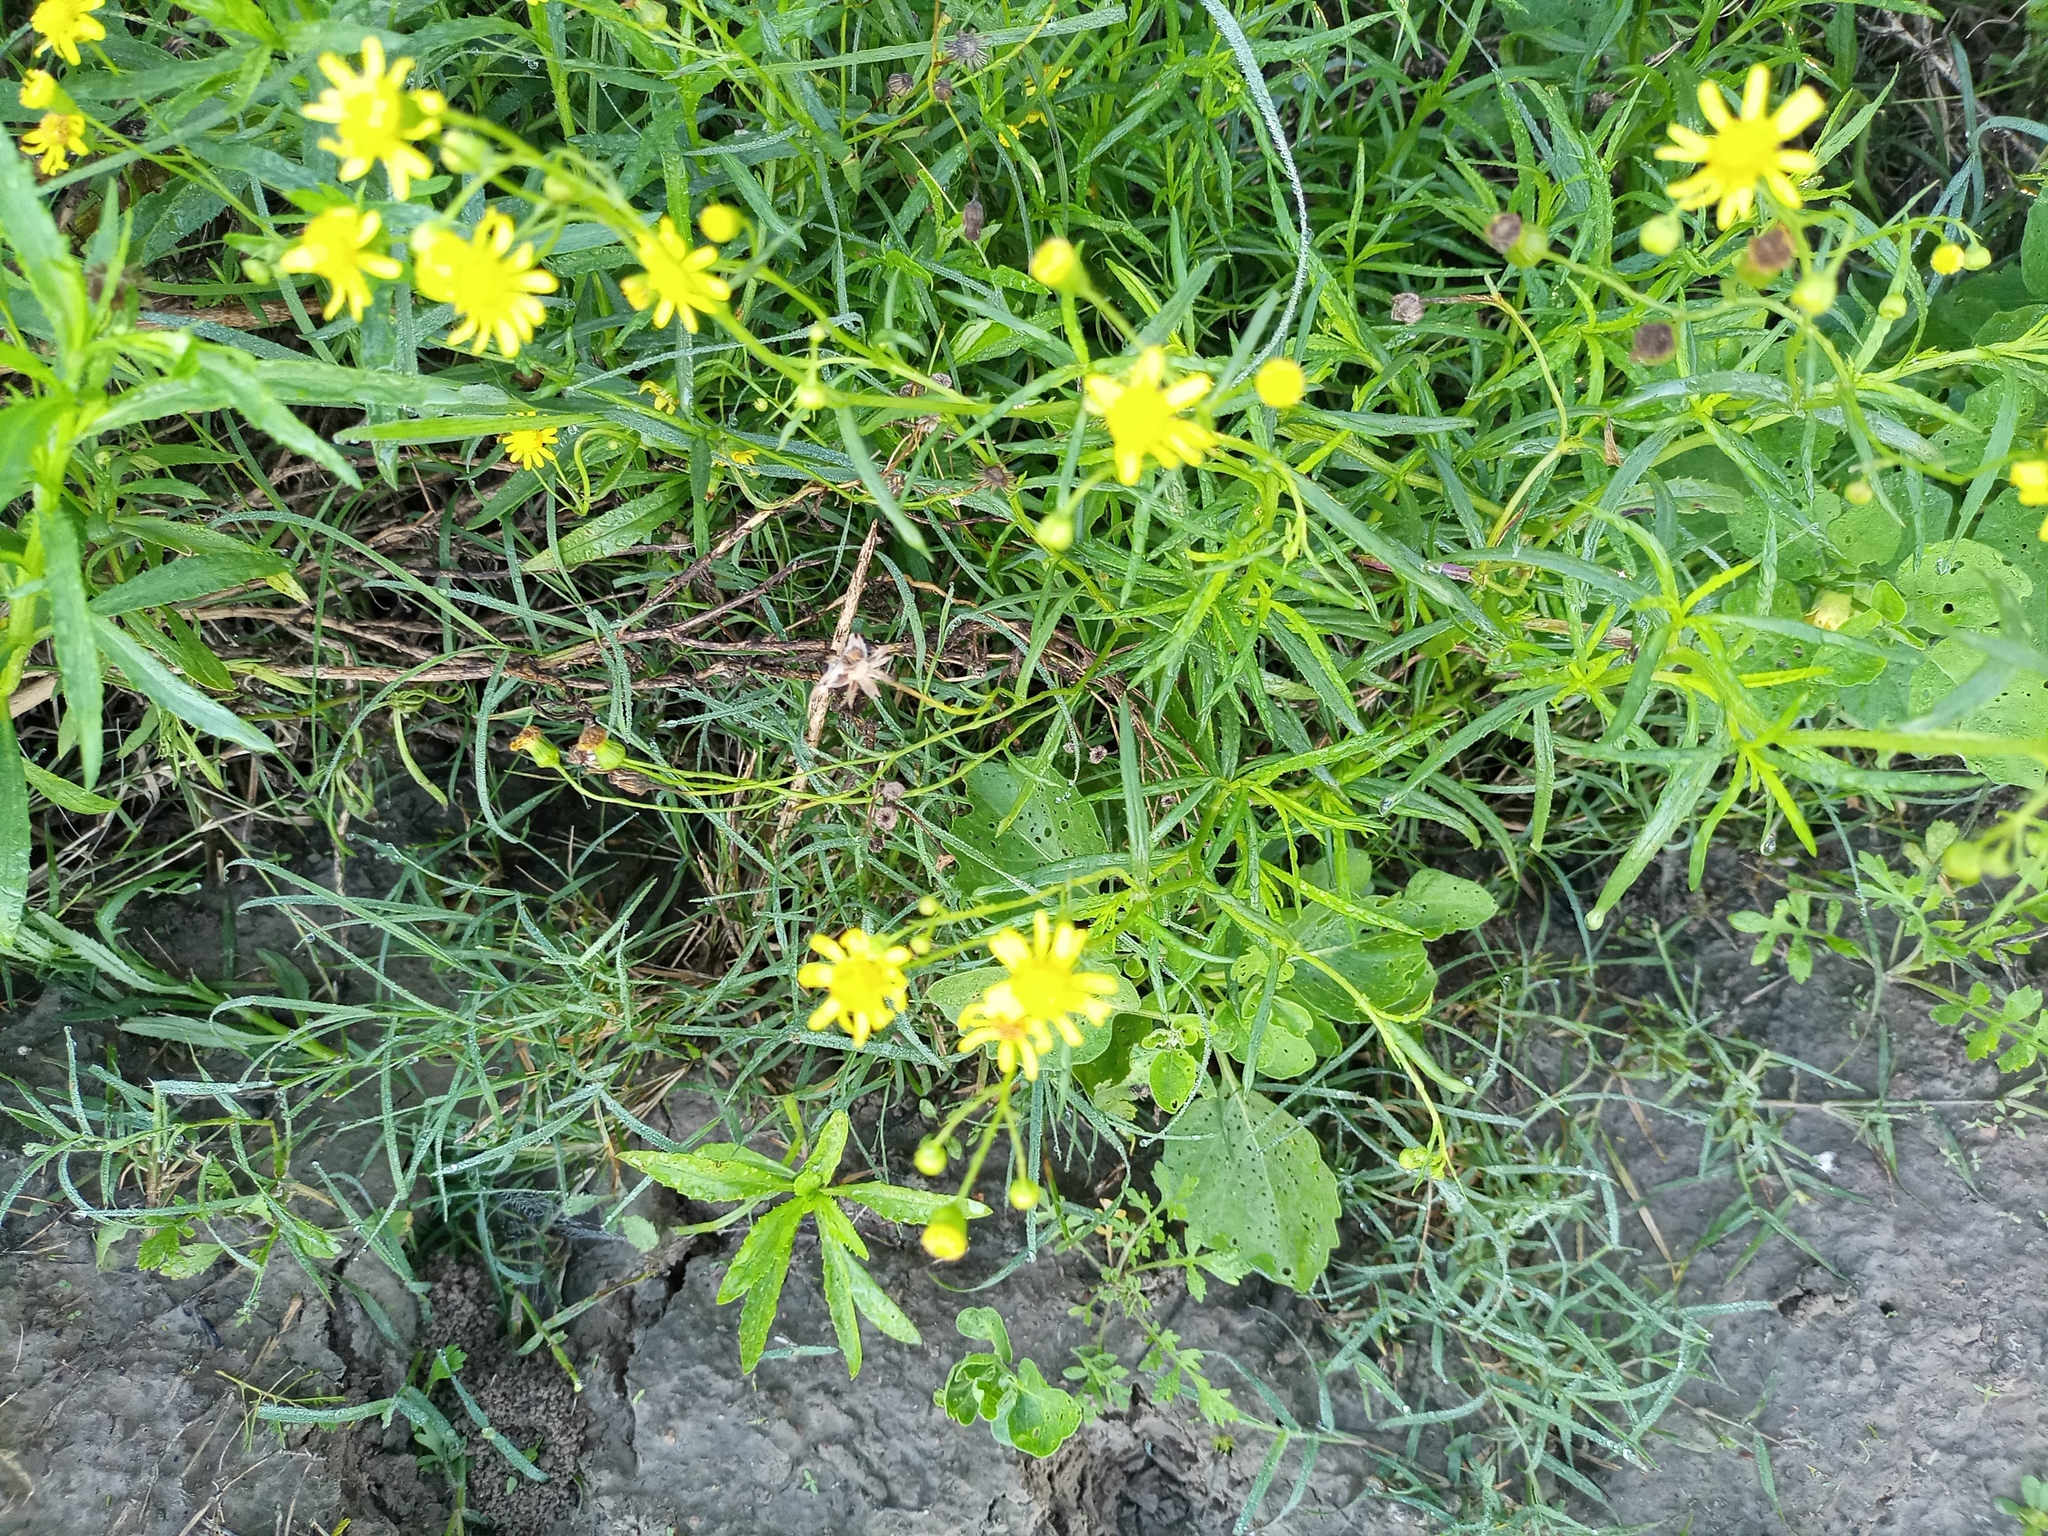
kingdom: Plantae
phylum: Tracheophyta
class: Magnoliopsida
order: Asterales
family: Asteraceae
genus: Senecio
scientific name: Senecio madagascariensis
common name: Madagascar ragwort
